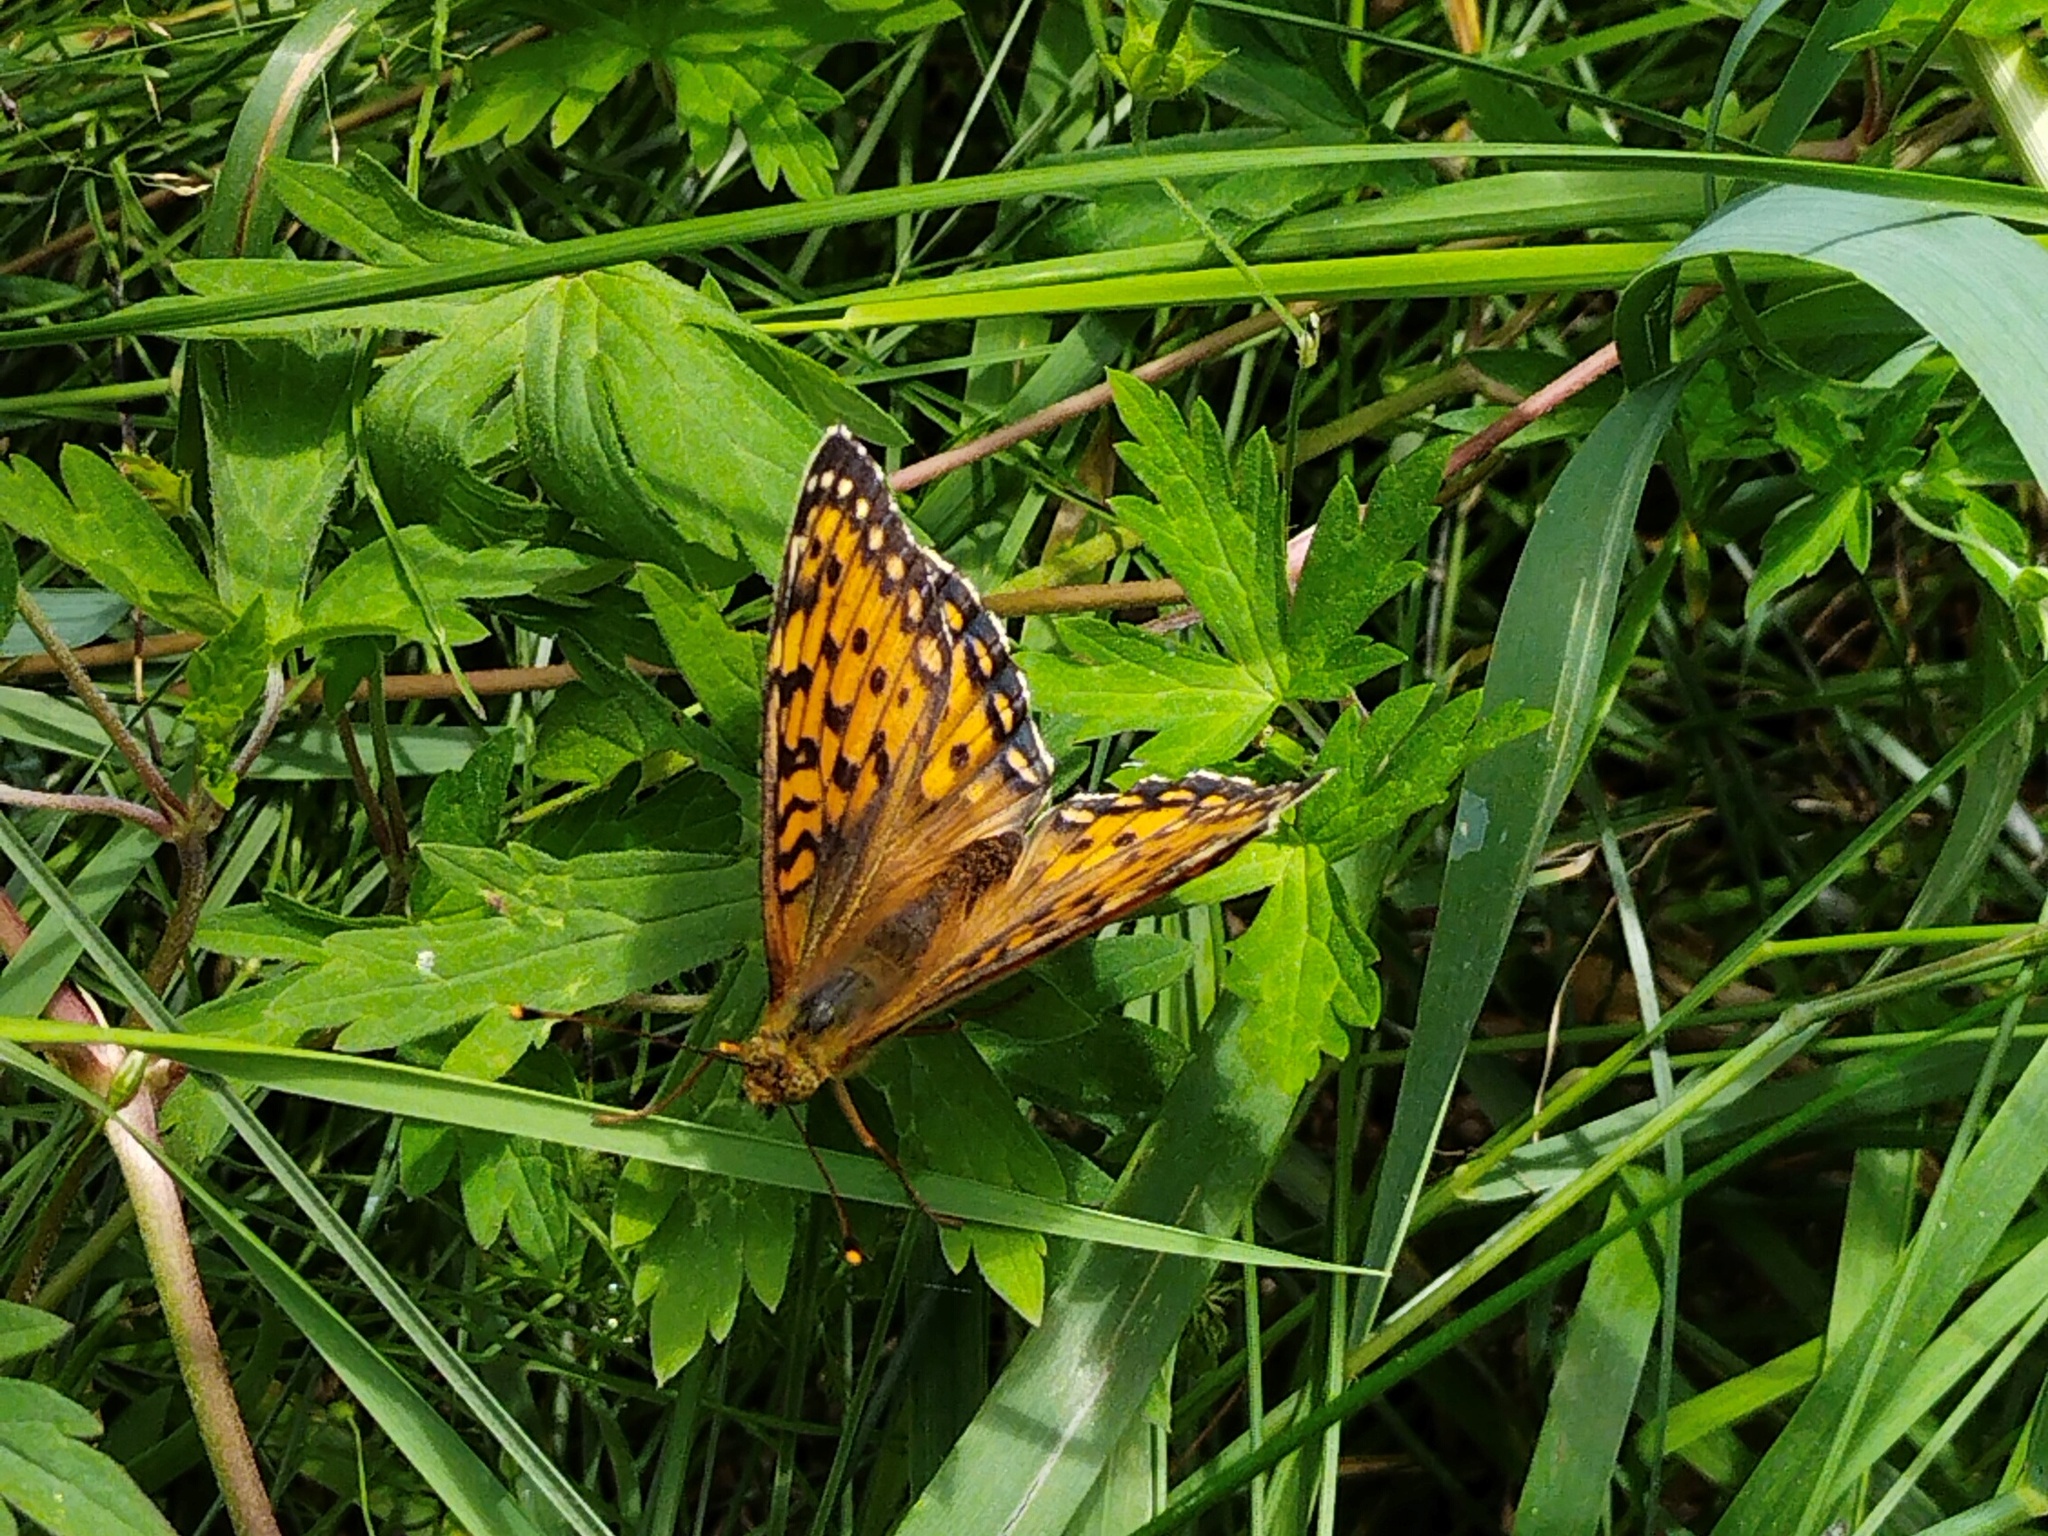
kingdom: Animalia
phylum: Arthropoda
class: Insecta
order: Lepidoptera
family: Nymphalidae
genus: Speyeria
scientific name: Speyeria aglaja
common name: Dark green fritillary
